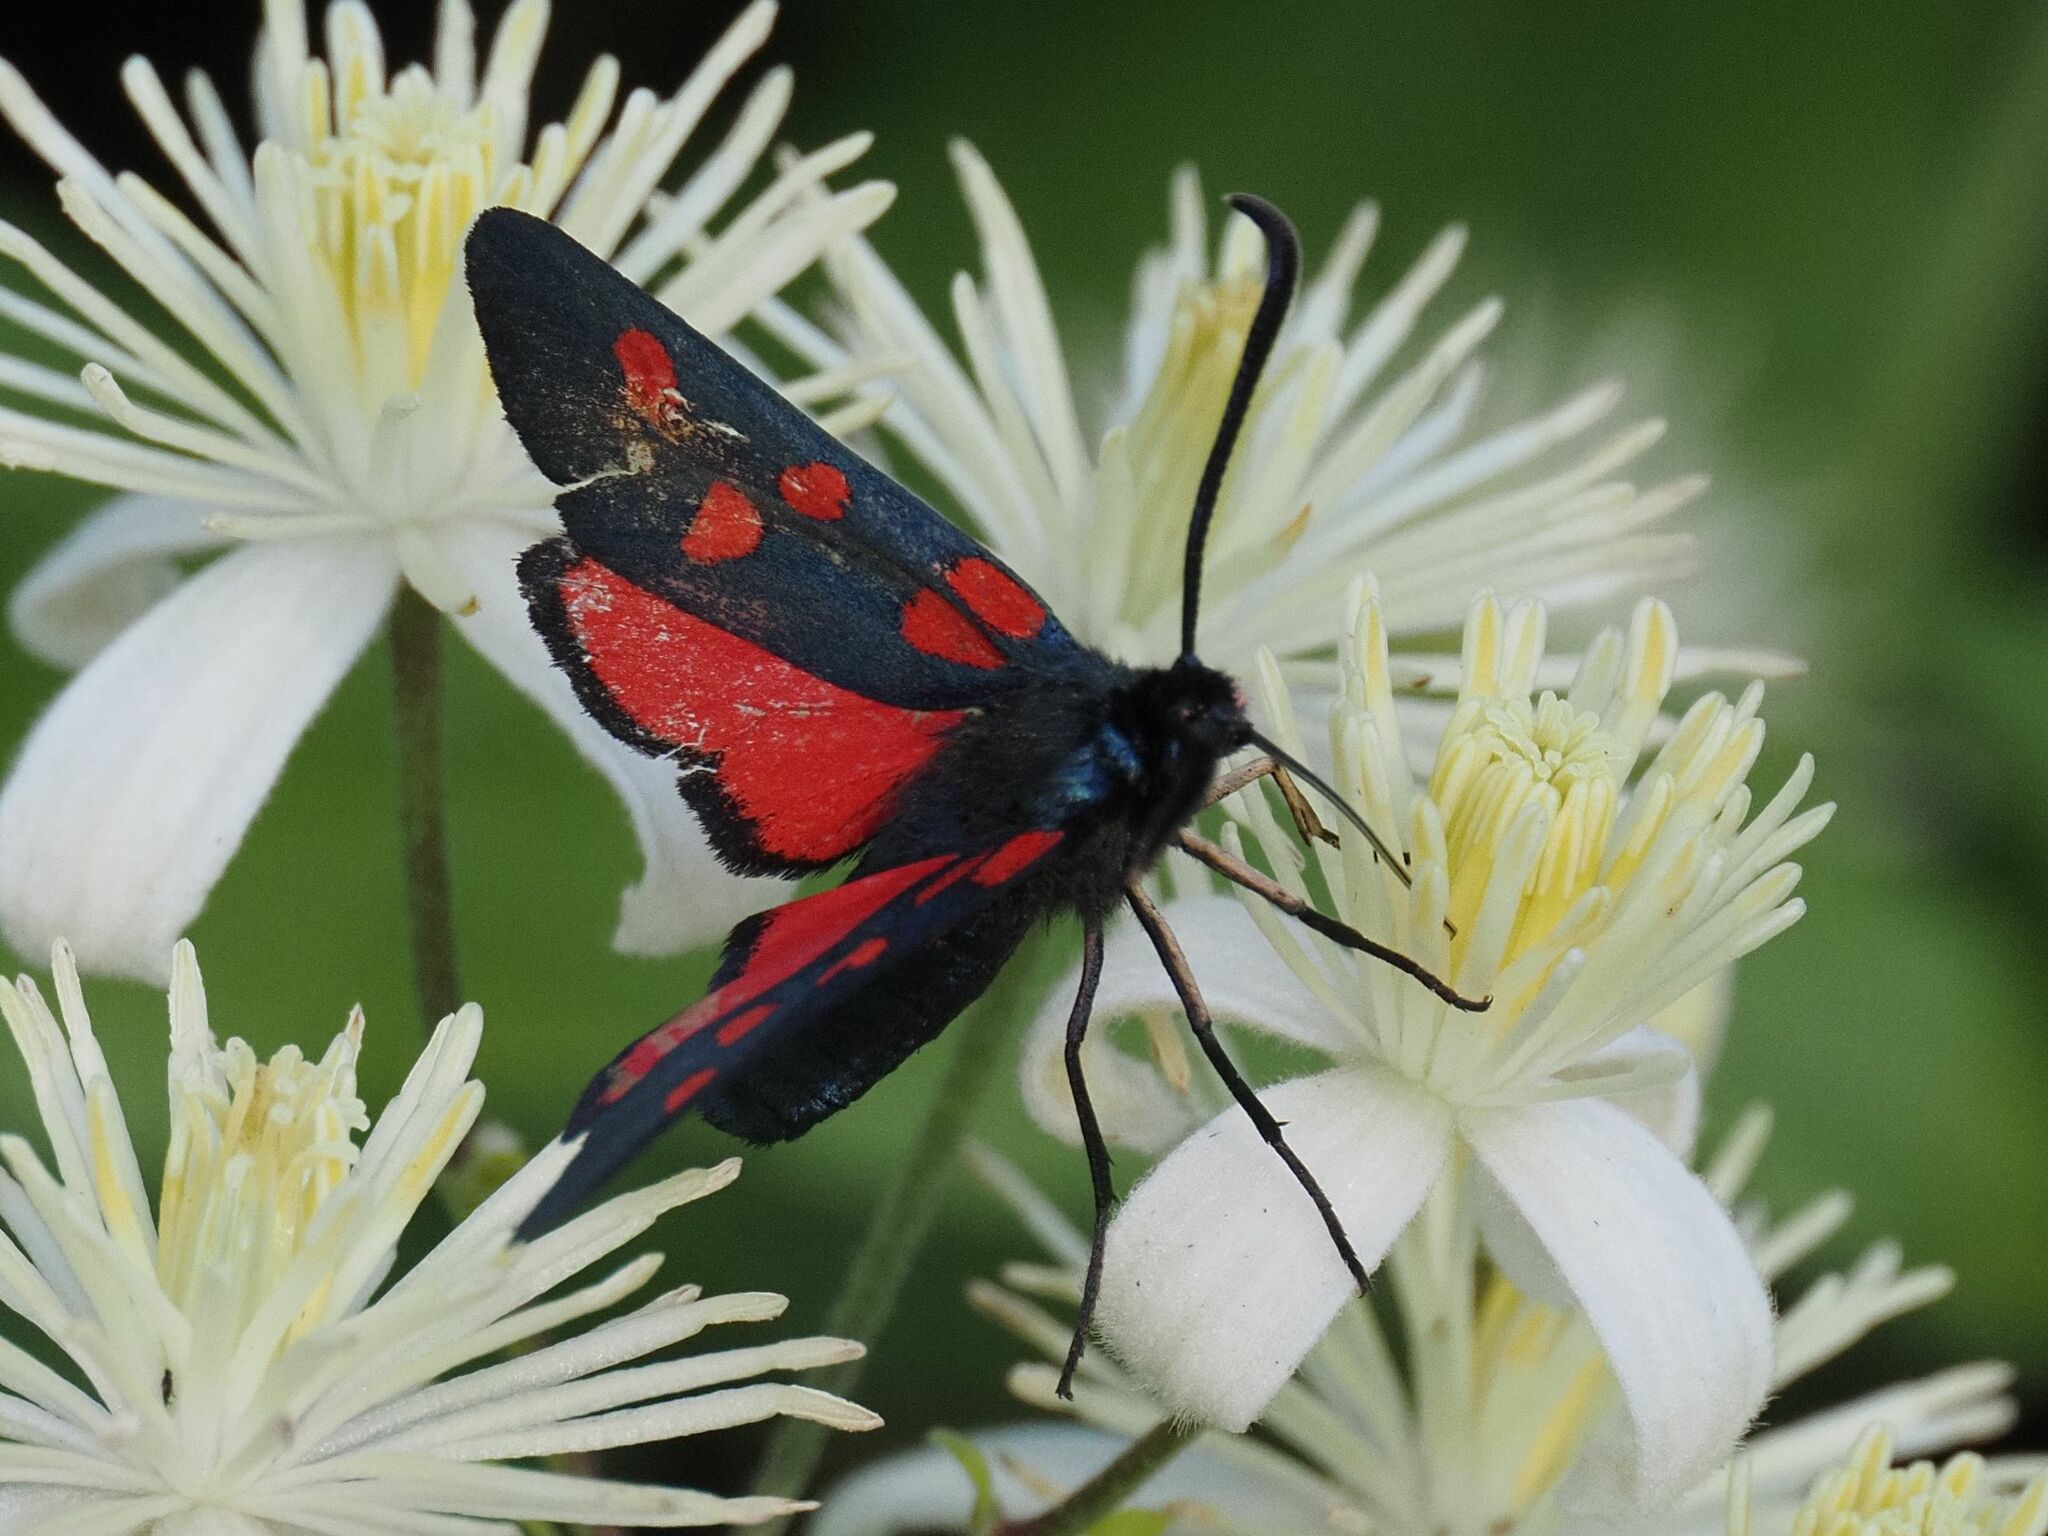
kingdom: Animalia
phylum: Arthropoda
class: Insecta
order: Lepidoptera
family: Zygaenidae
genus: Zygaena
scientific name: Zygaena angelicae
